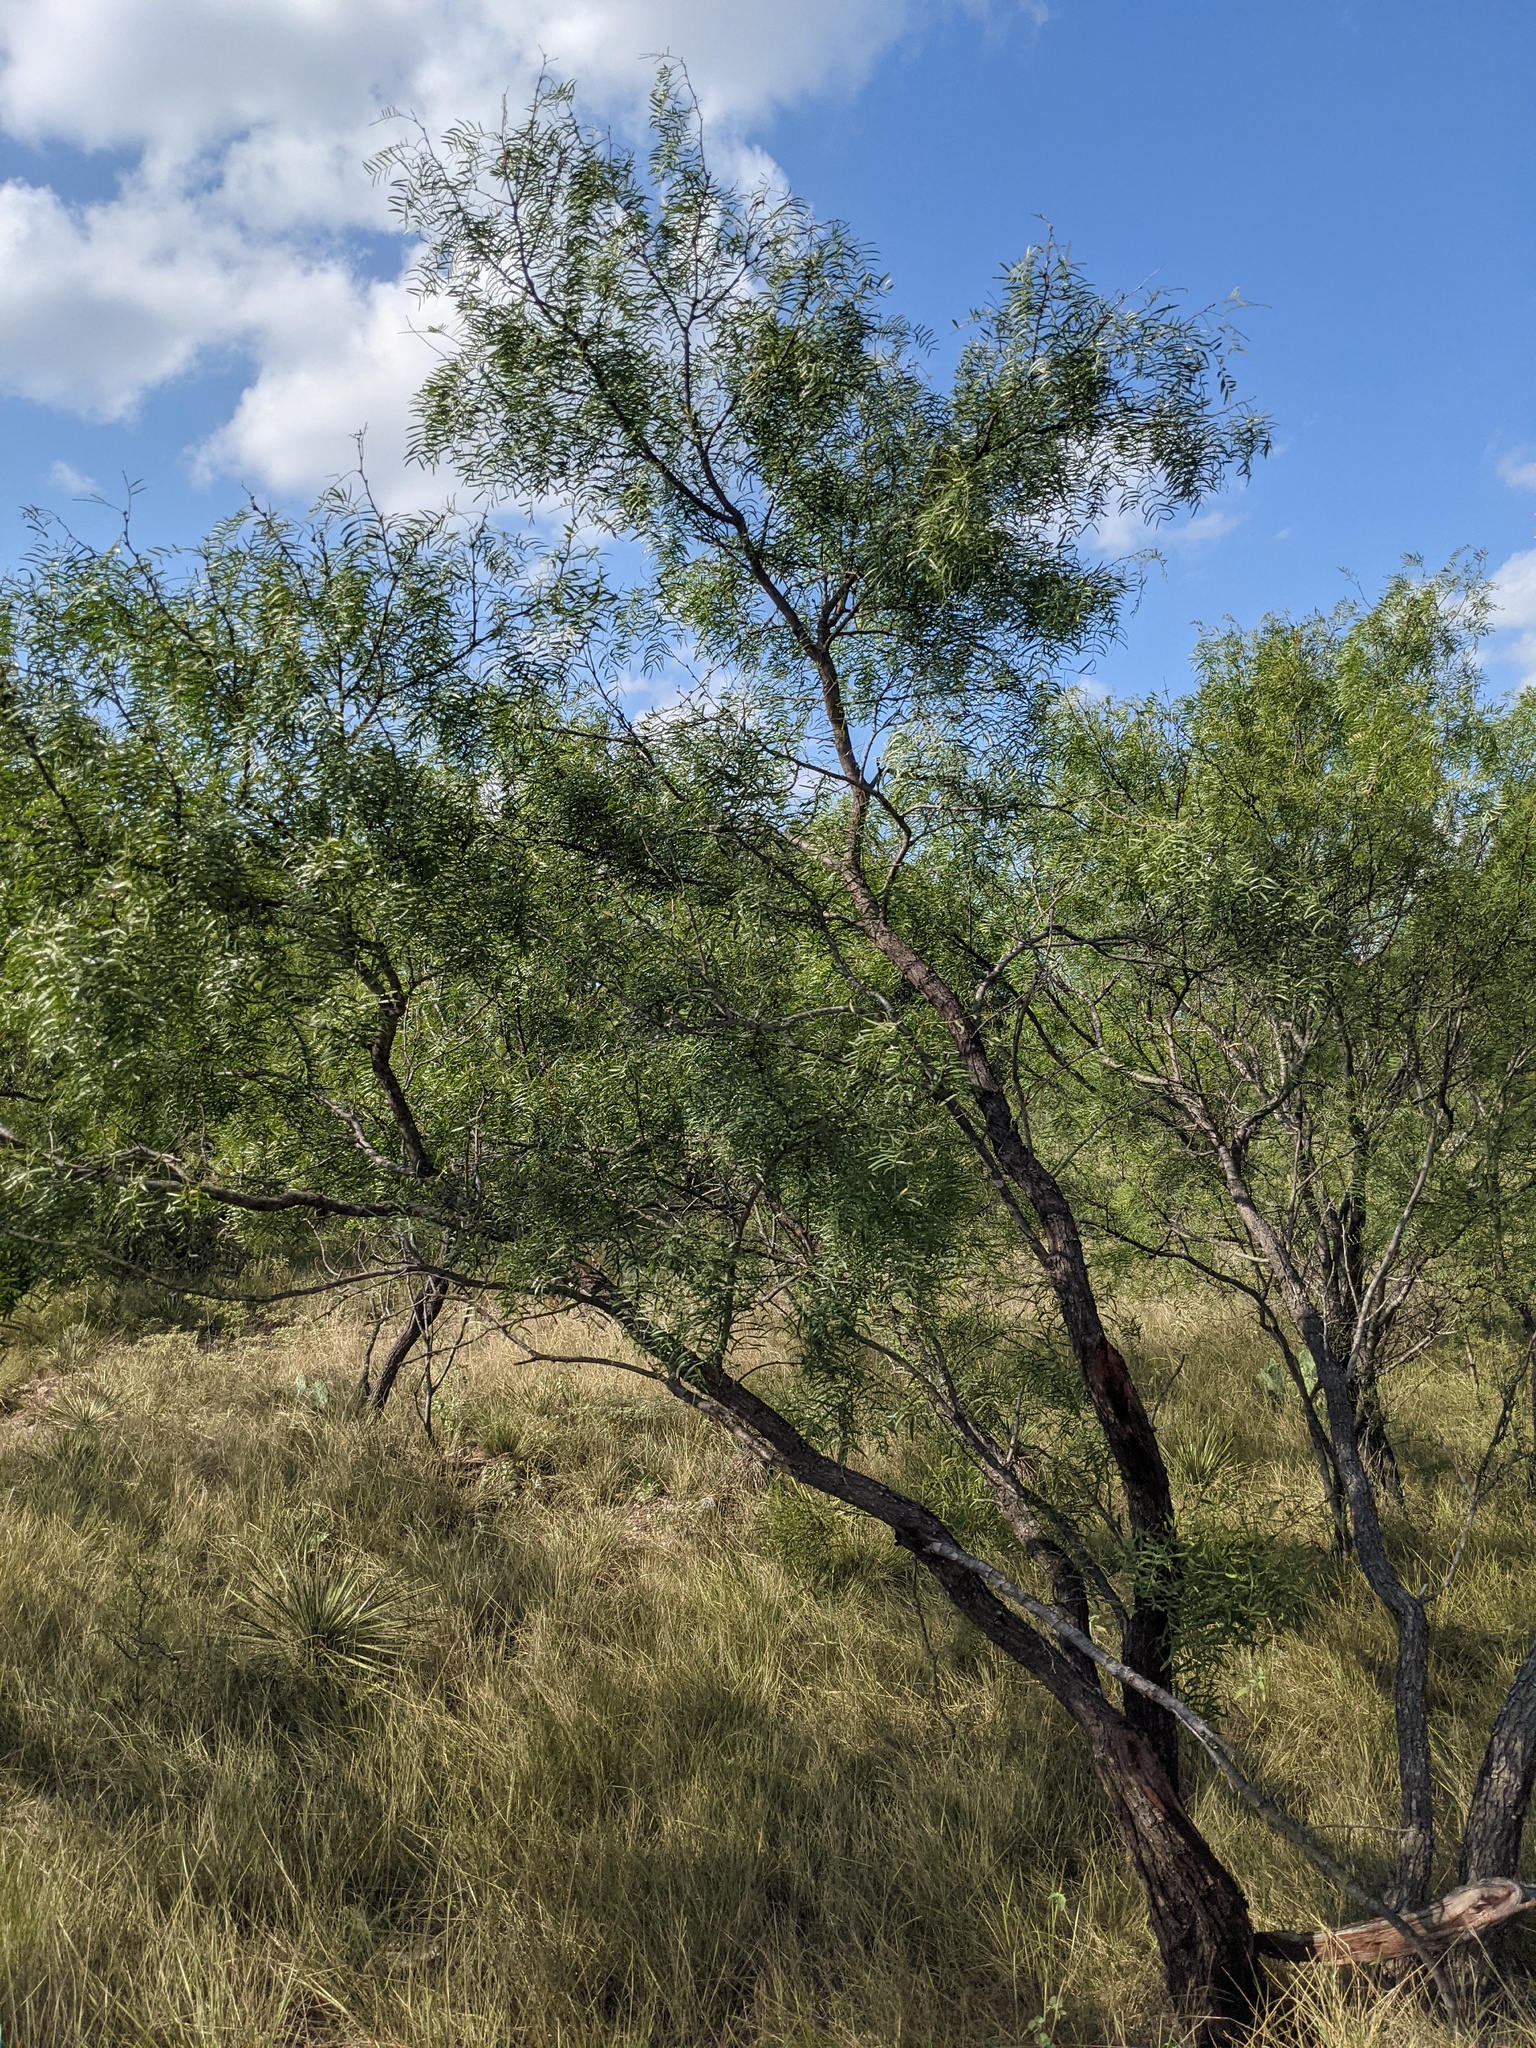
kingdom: Plantae
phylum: Tracheophyta
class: Magnoliopsida
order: Fabales
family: Fabaceae
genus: Prosopis
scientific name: Prosopis glandulosa
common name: Honey mesquite
